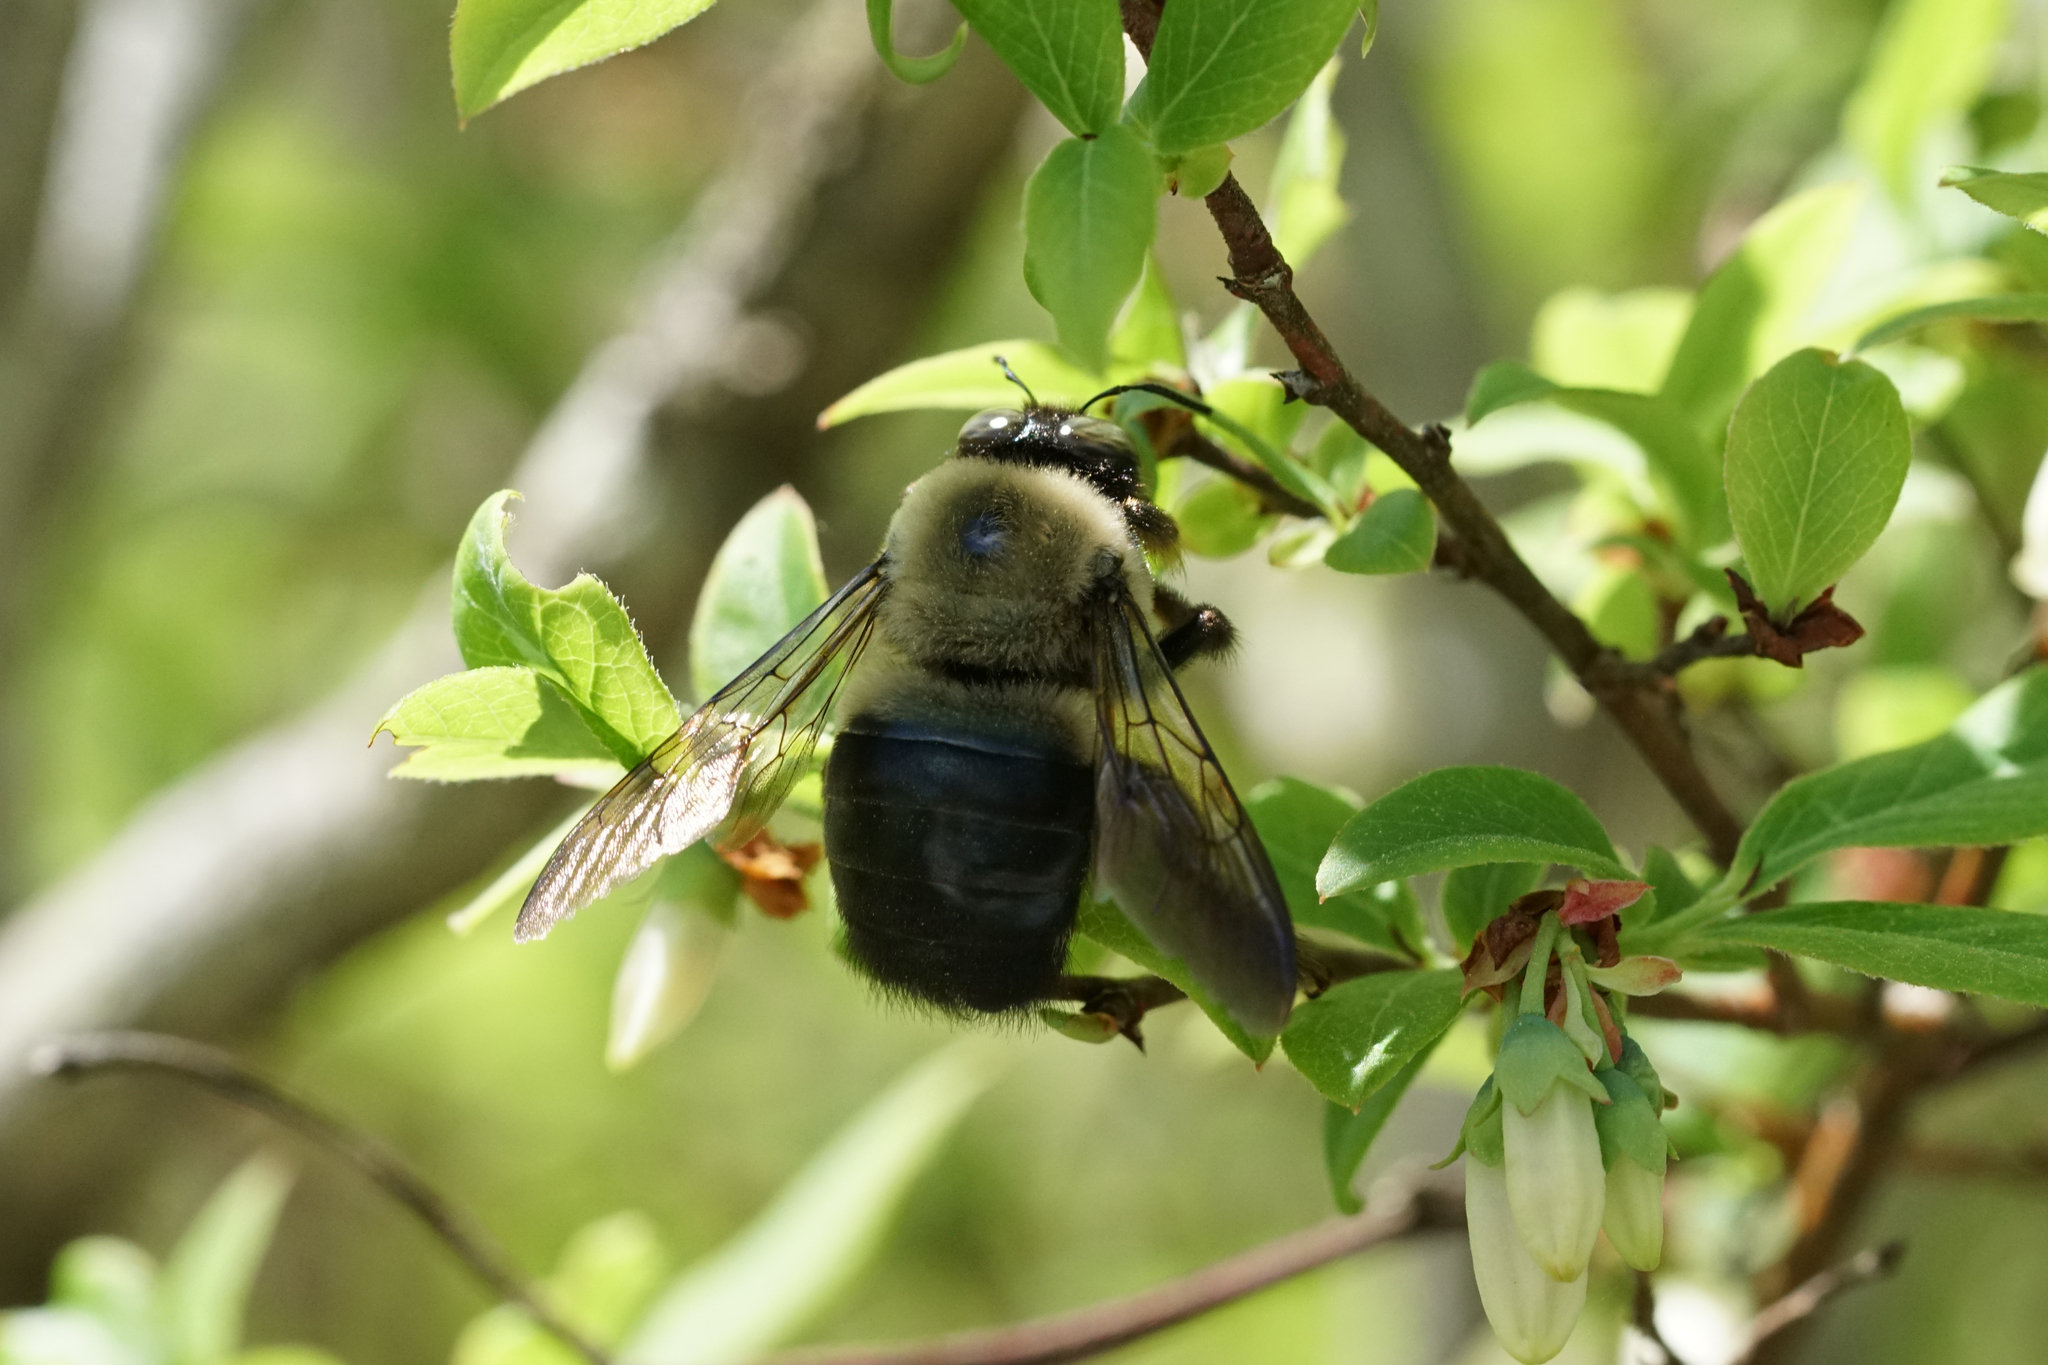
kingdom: Animalia
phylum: Arthropoda
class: Insecta
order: Hymenoptera
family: Apidae
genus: Xylocopa
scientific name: Xylocopa virginica
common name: Carpenter bee
